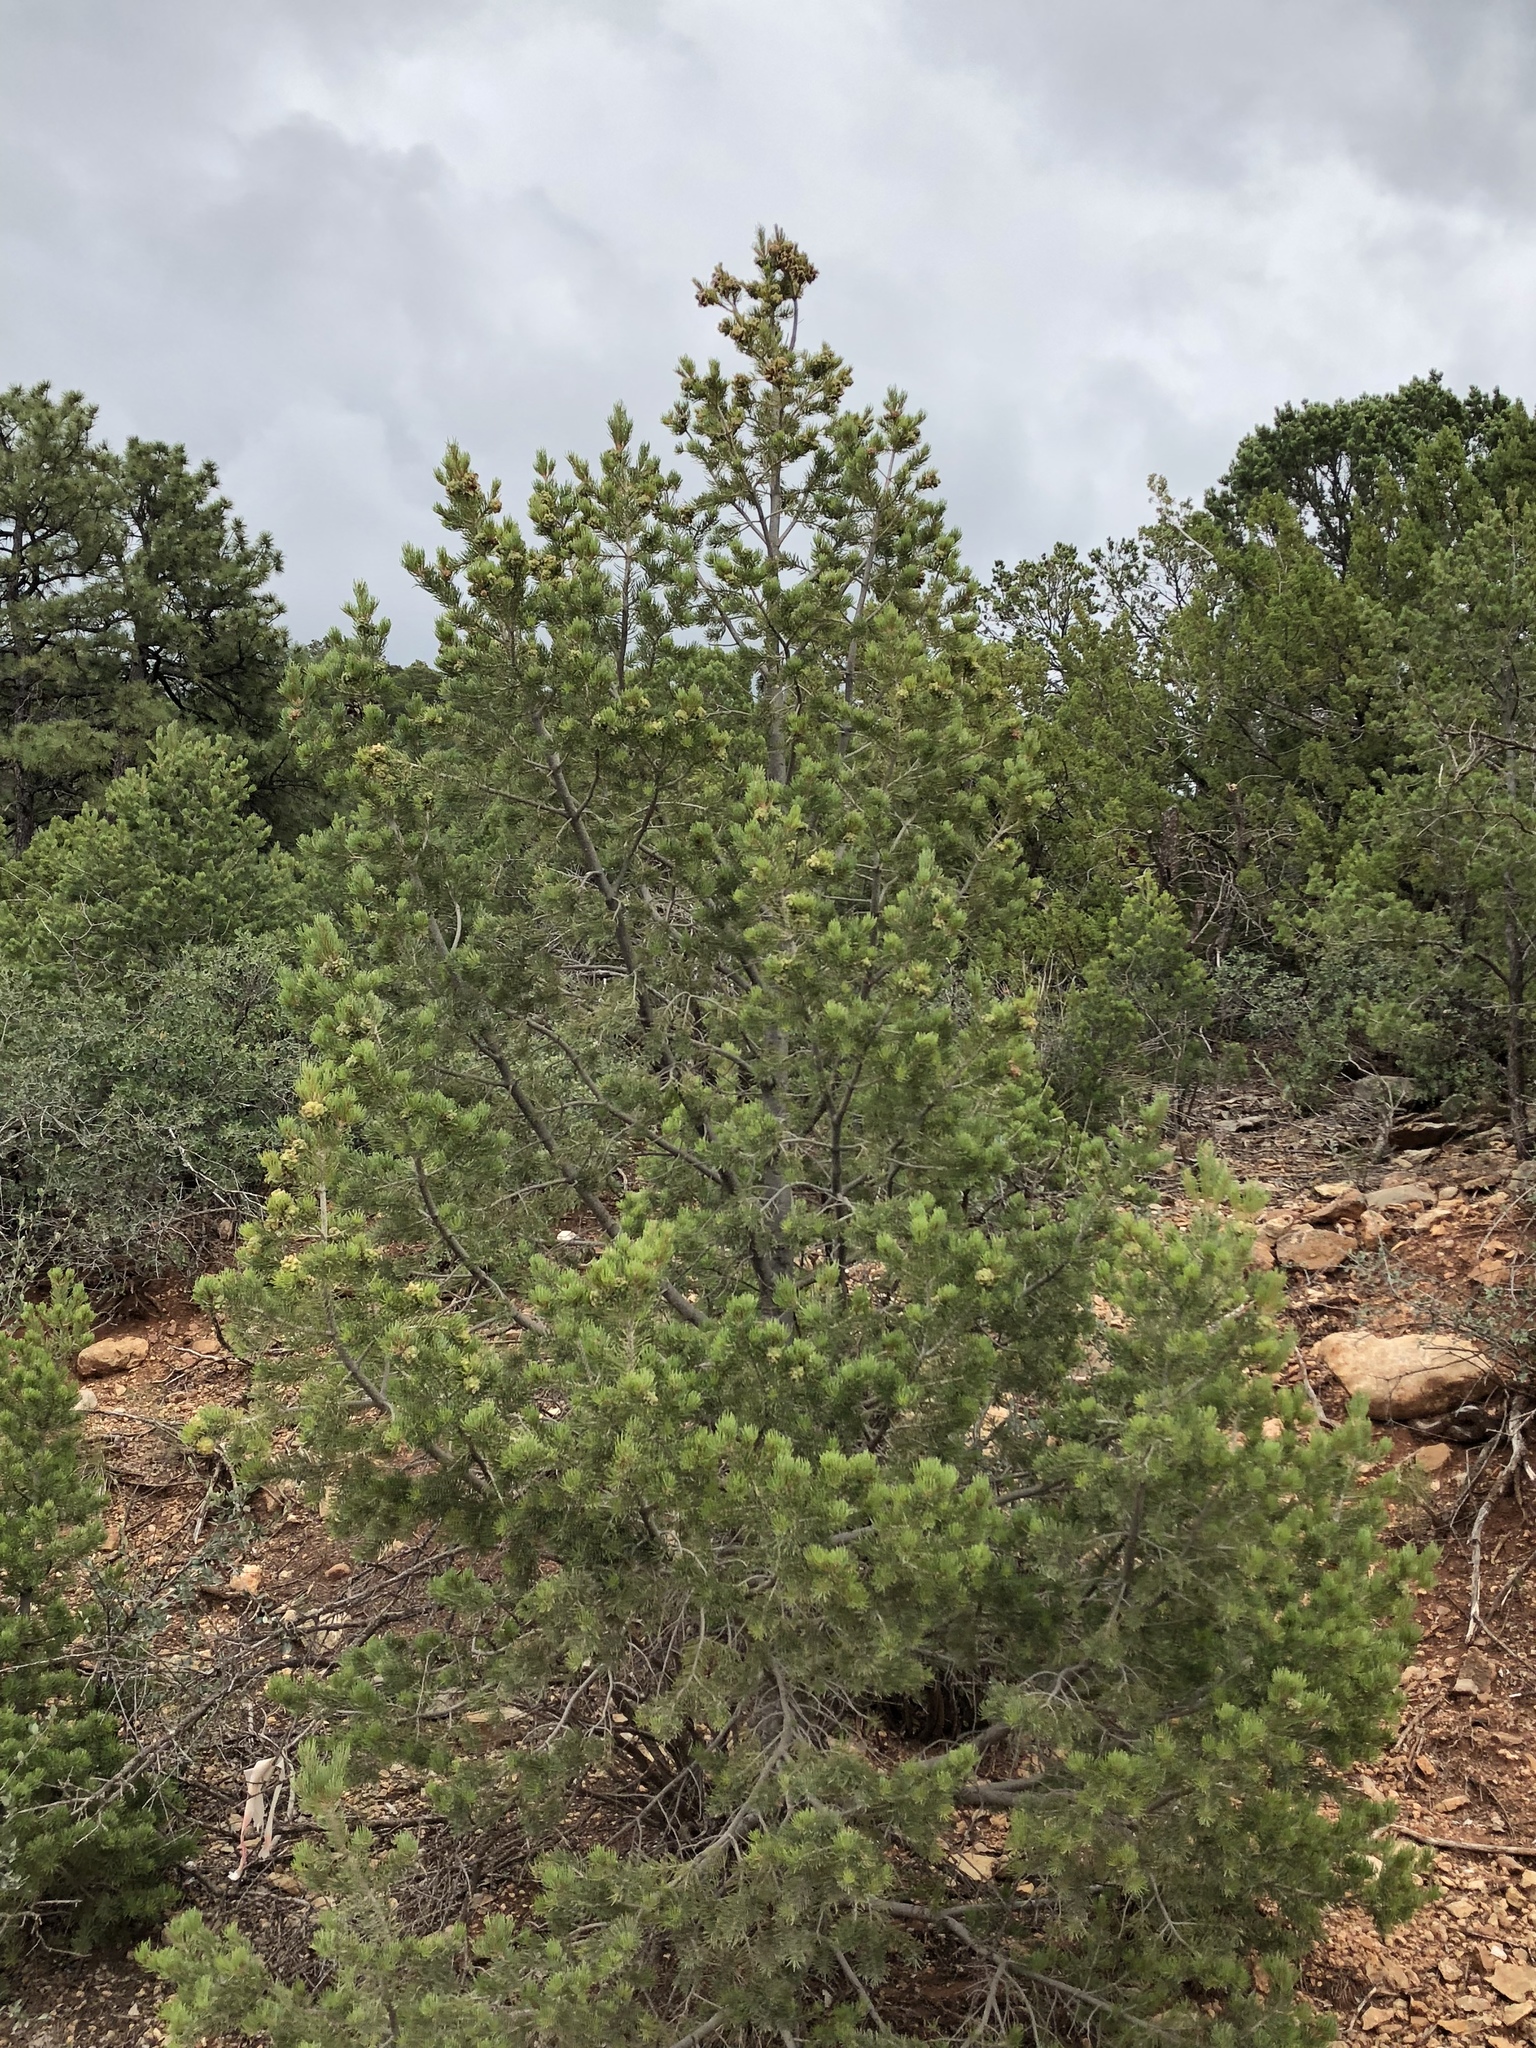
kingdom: Plantae
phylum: Tracheophyta
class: Pinopsida
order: Pinales
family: Pinaceae
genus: Pinus
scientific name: Pinus edulis
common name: Colorado pinyon
